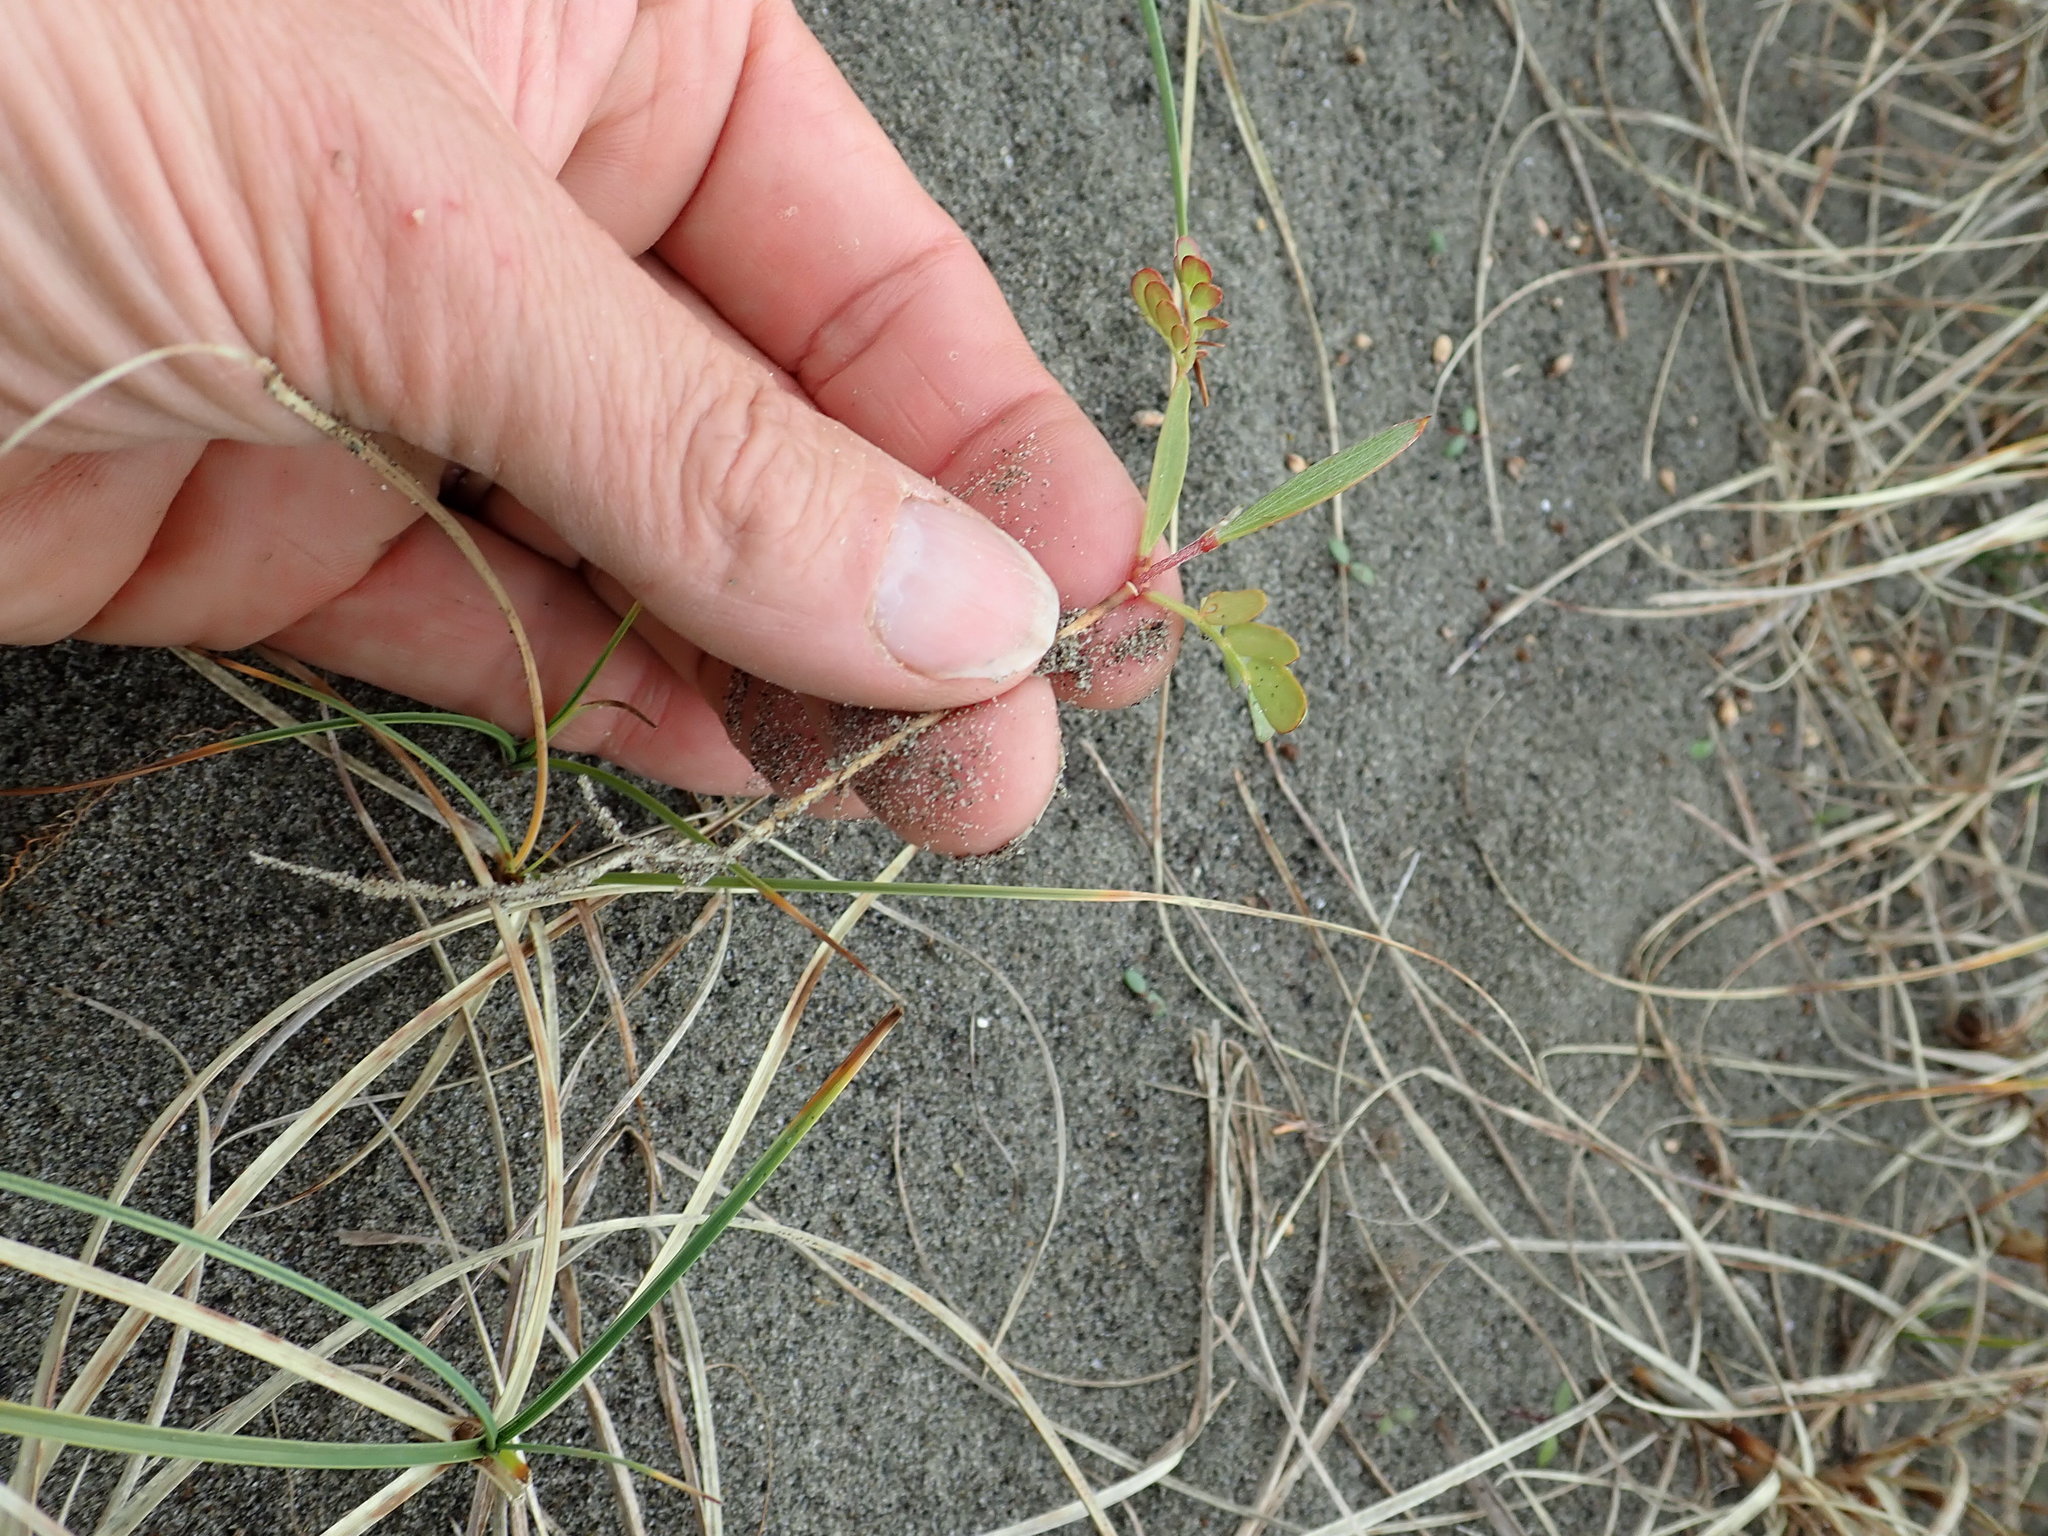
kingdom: Plantae
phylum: Tracheophyta
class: Magnoliopsida
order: Fabales
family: Fabaceae
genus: Acacia
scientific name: Acacia longifolia
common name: Sydney golden wattle
